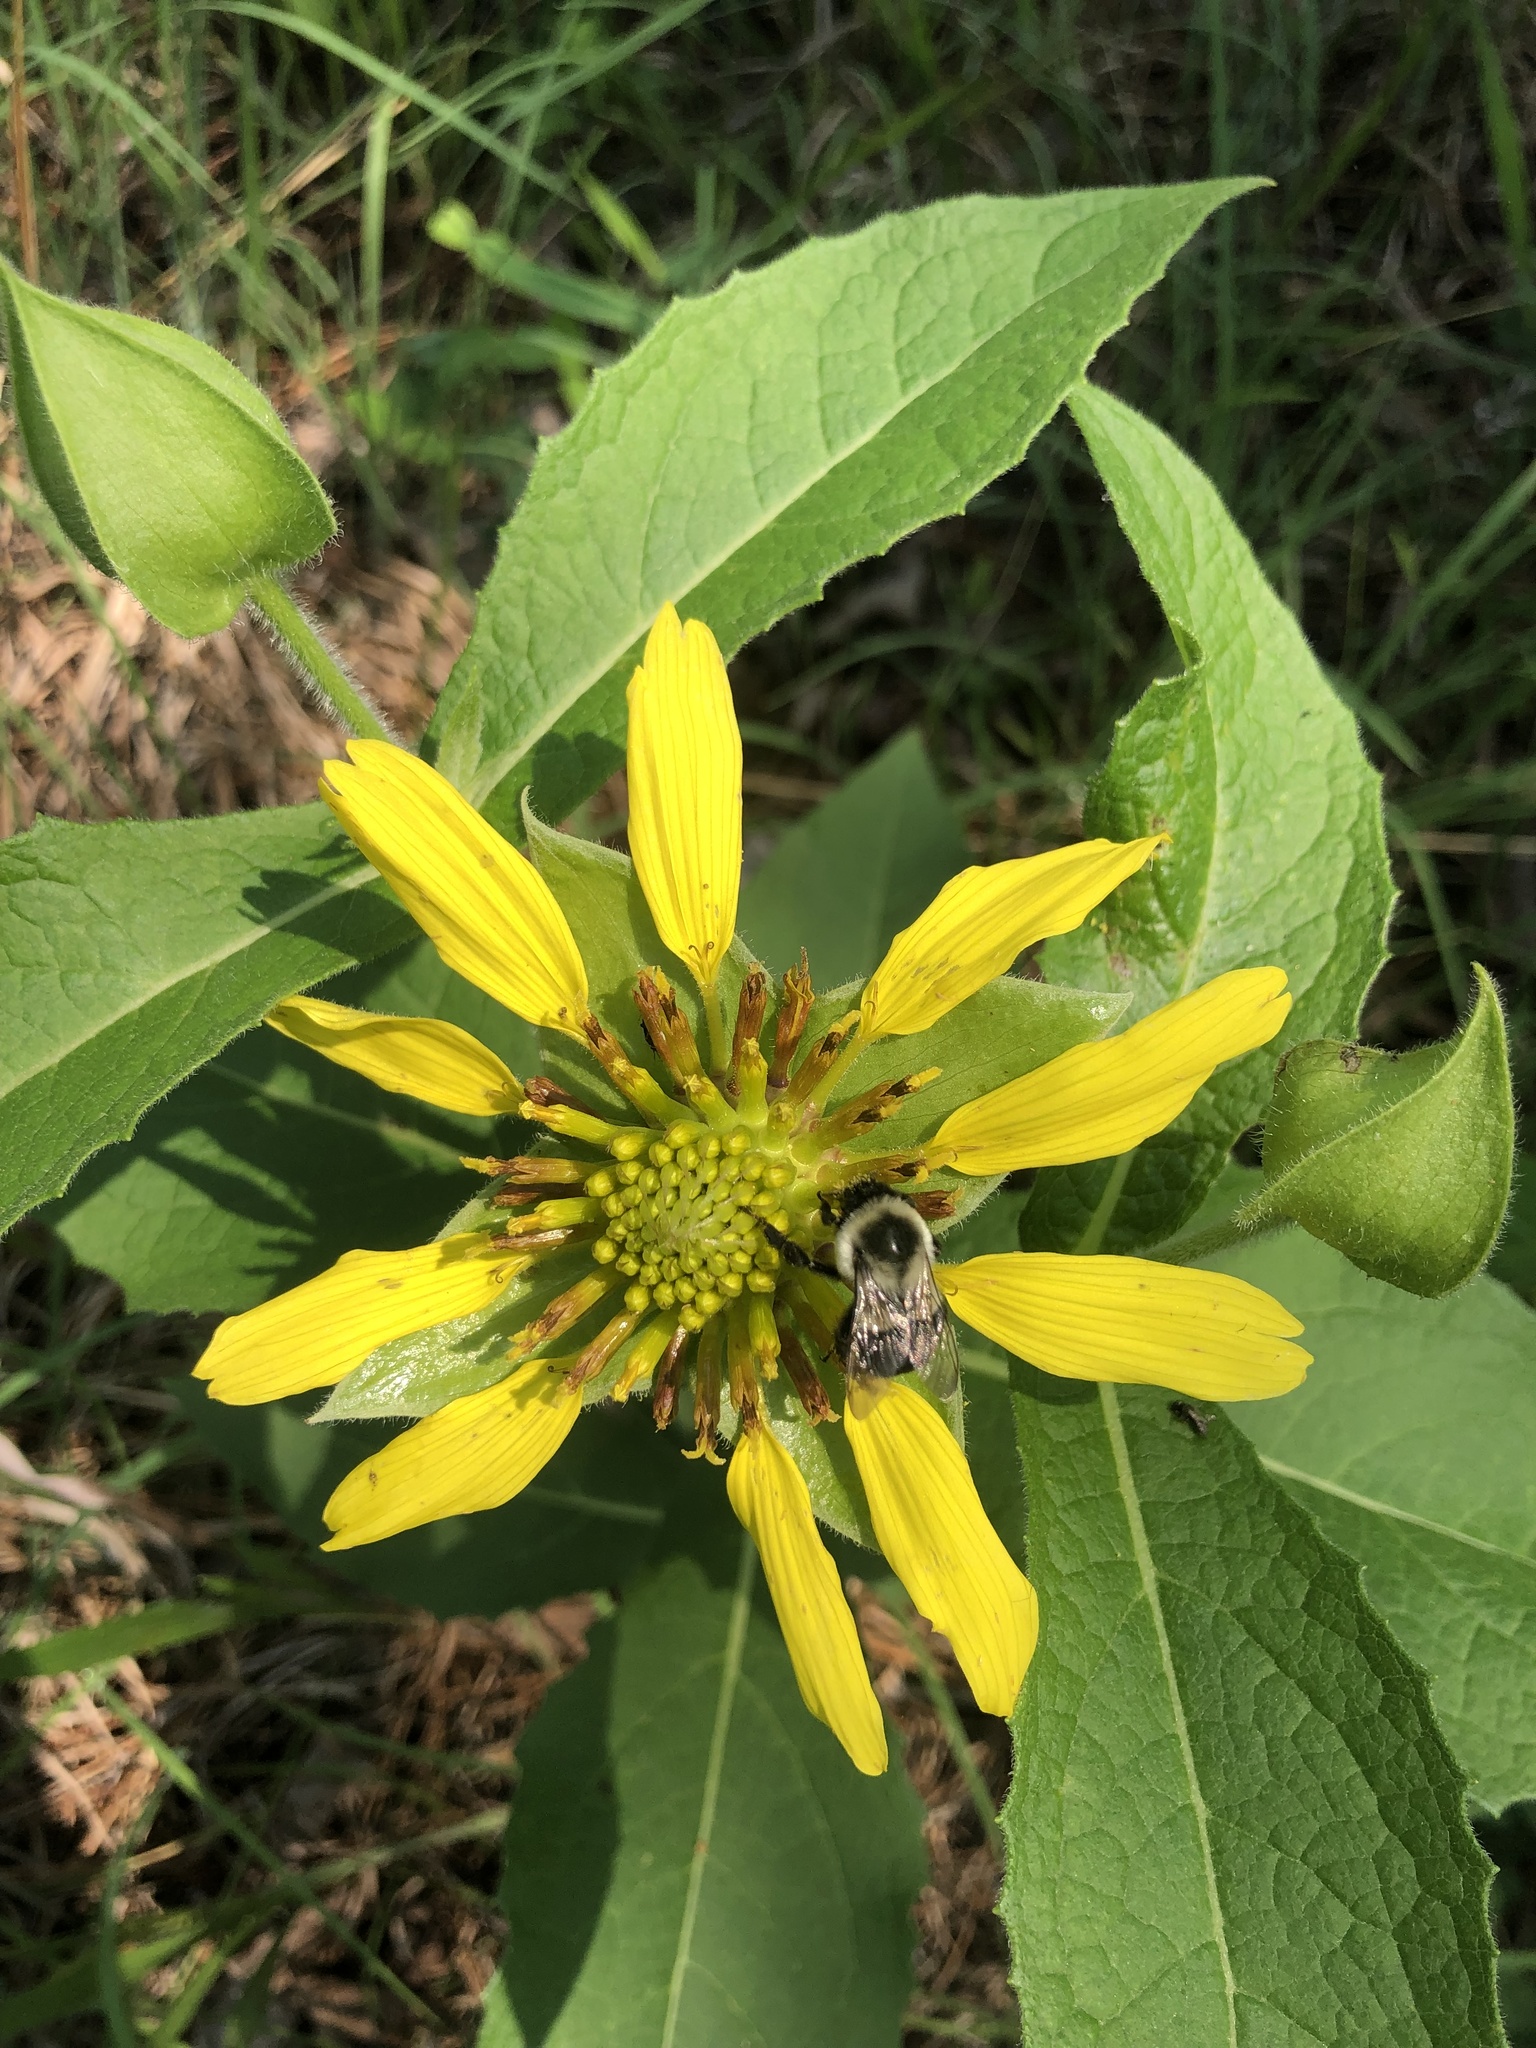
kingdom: Animalia
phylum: Arthropoda
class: Insecta
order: Hymenoptera
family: Apidae
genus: Bombus
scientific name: Bombus impatiens
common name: Common eastern bumble bee
